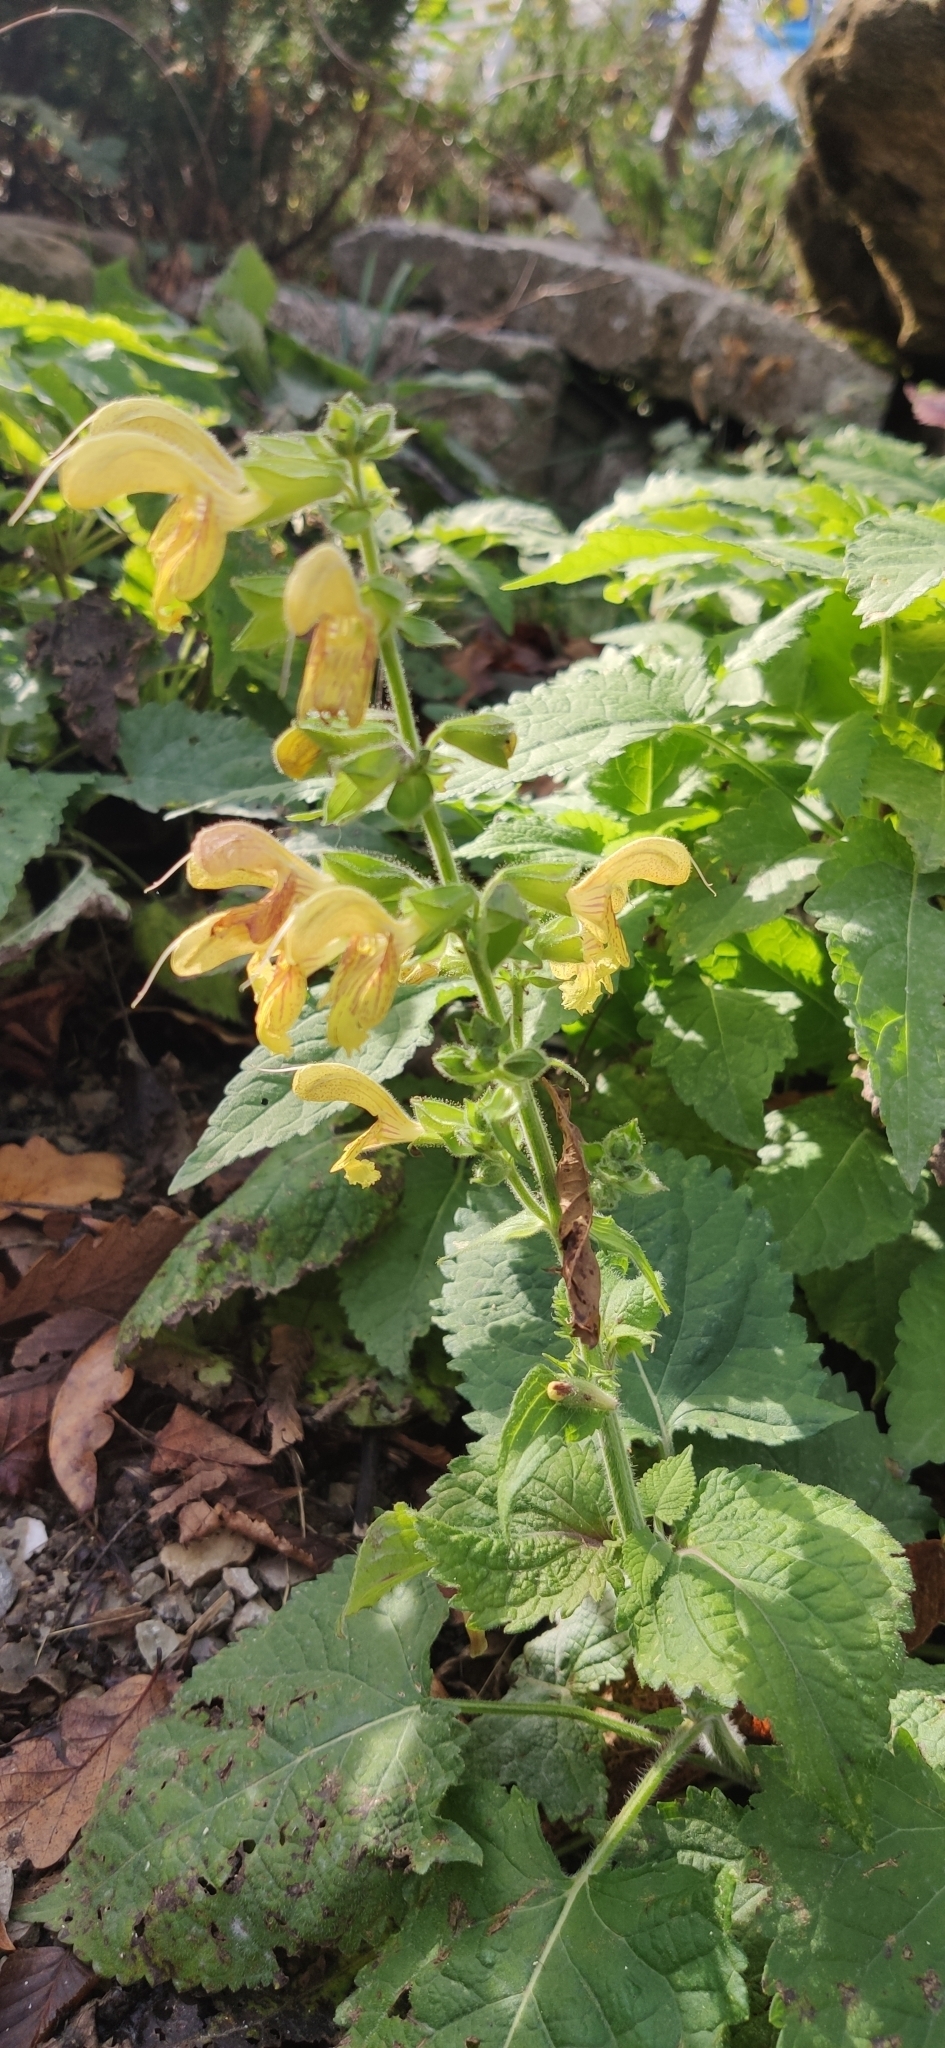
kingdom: Plantae
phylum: Tracheophyta
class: Magnoliopsida
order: Lamiales
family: Lamiaceae
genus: Salvia
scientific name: Salvia glutinosa
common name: Sticky clary
